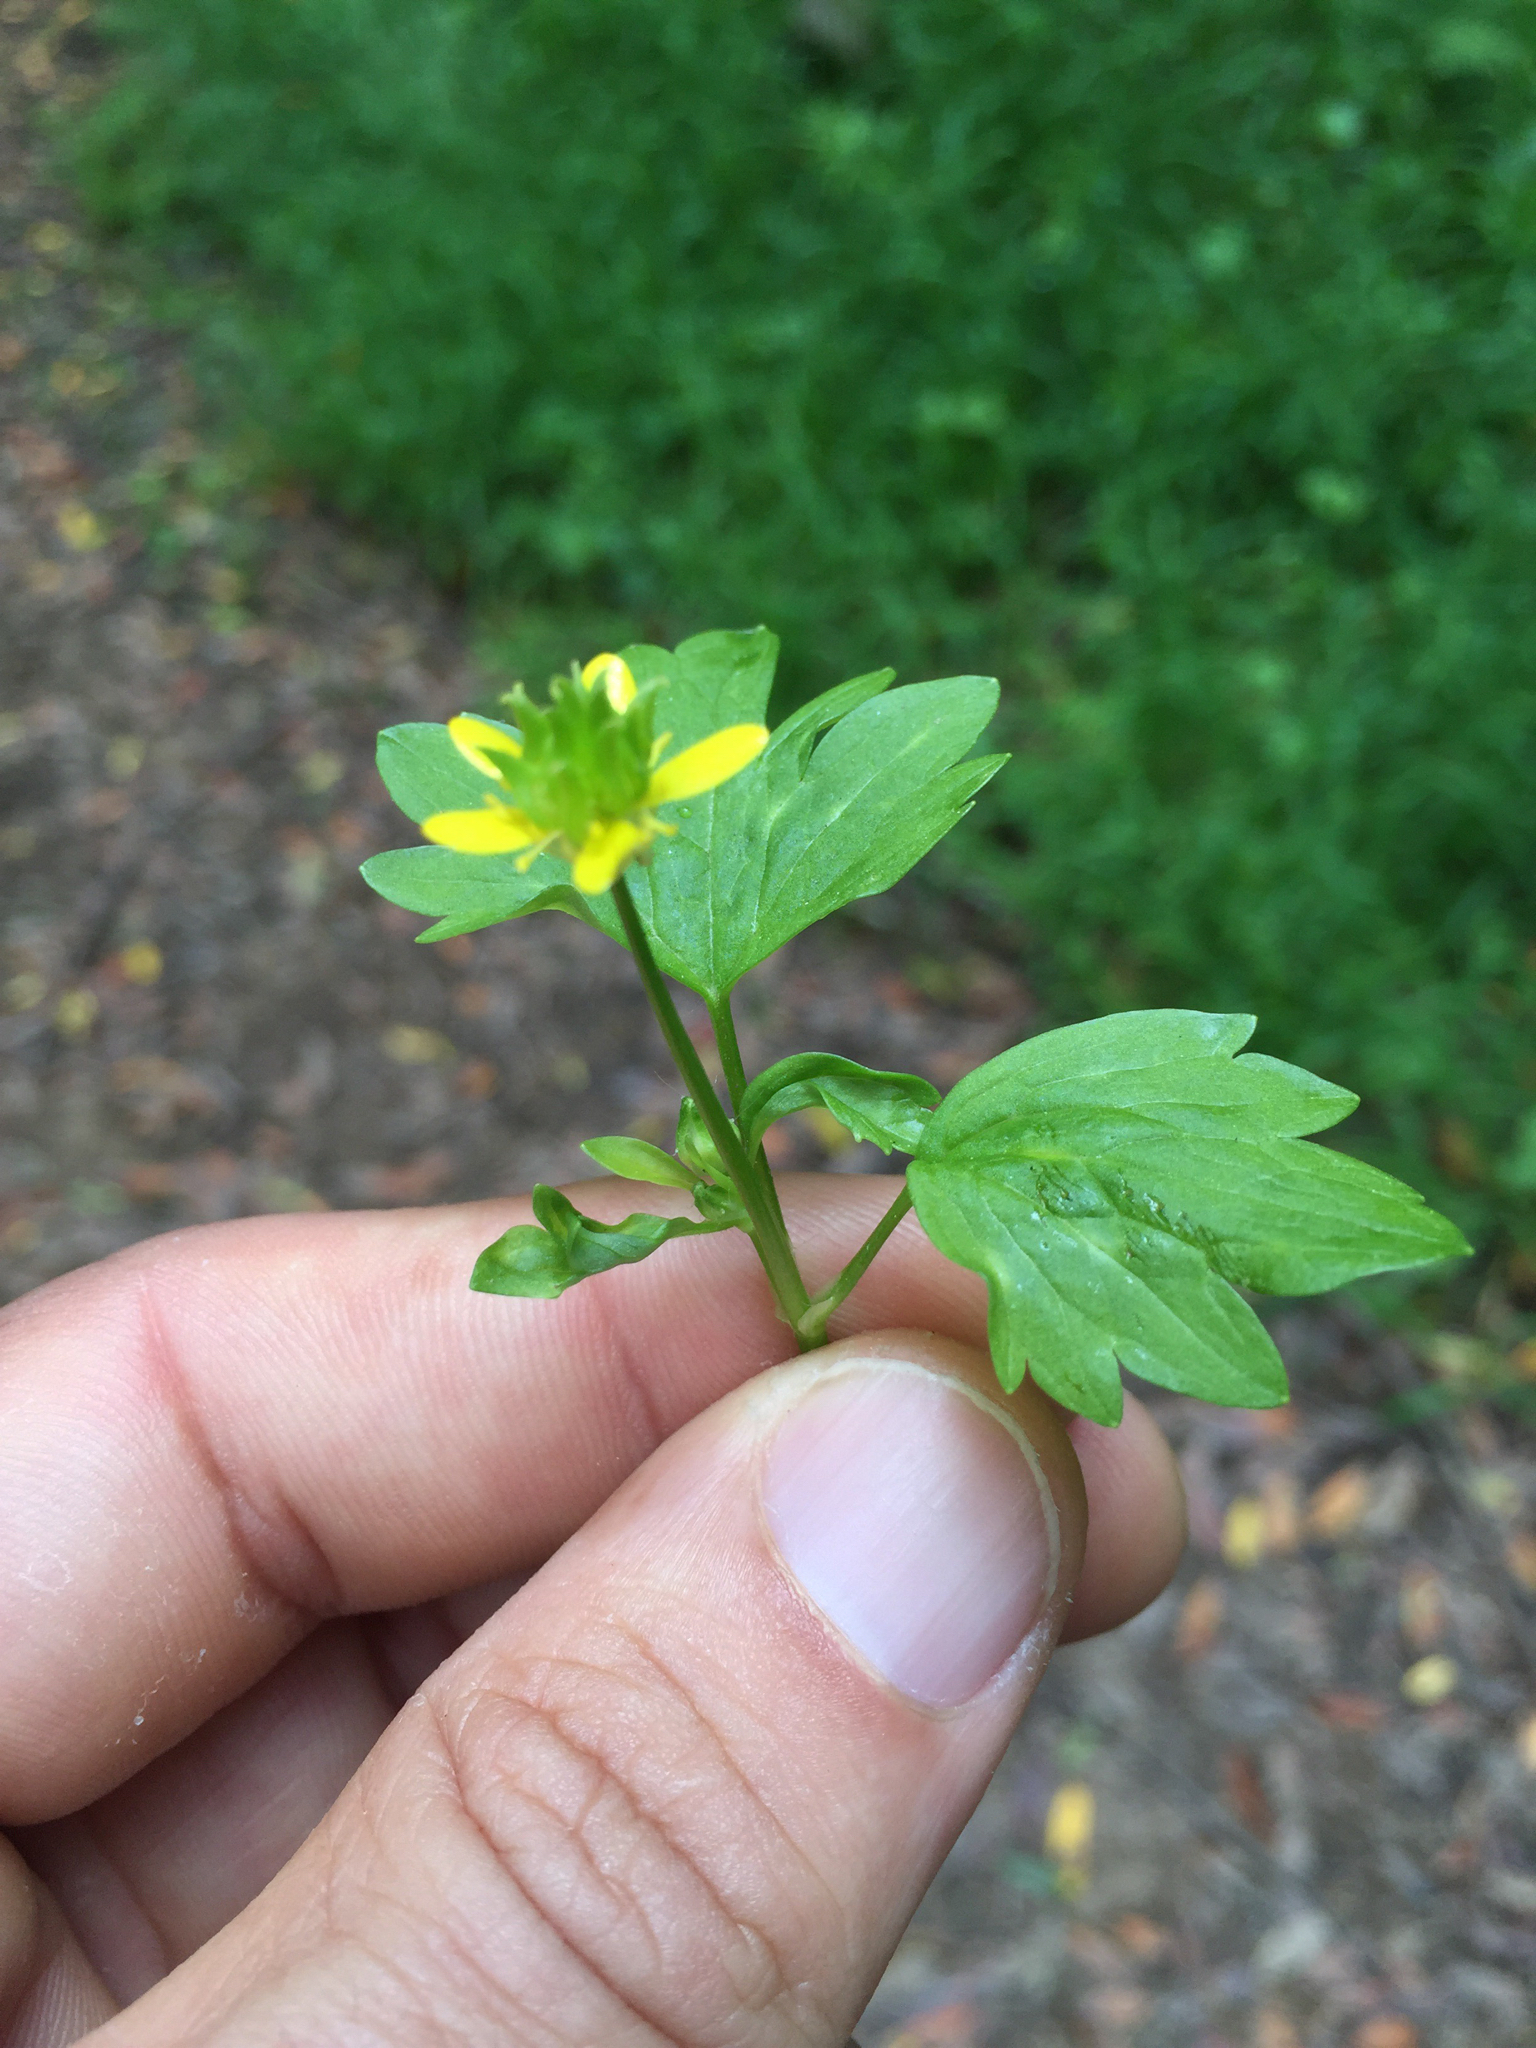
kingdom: Plantae
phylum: Tracheophyta
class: Magnoliopsida
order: Ranunculales
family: Ranunculaceae
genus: Ranunculus
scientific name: Ranunculus muricatus
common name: Rough-fruited buttercup
